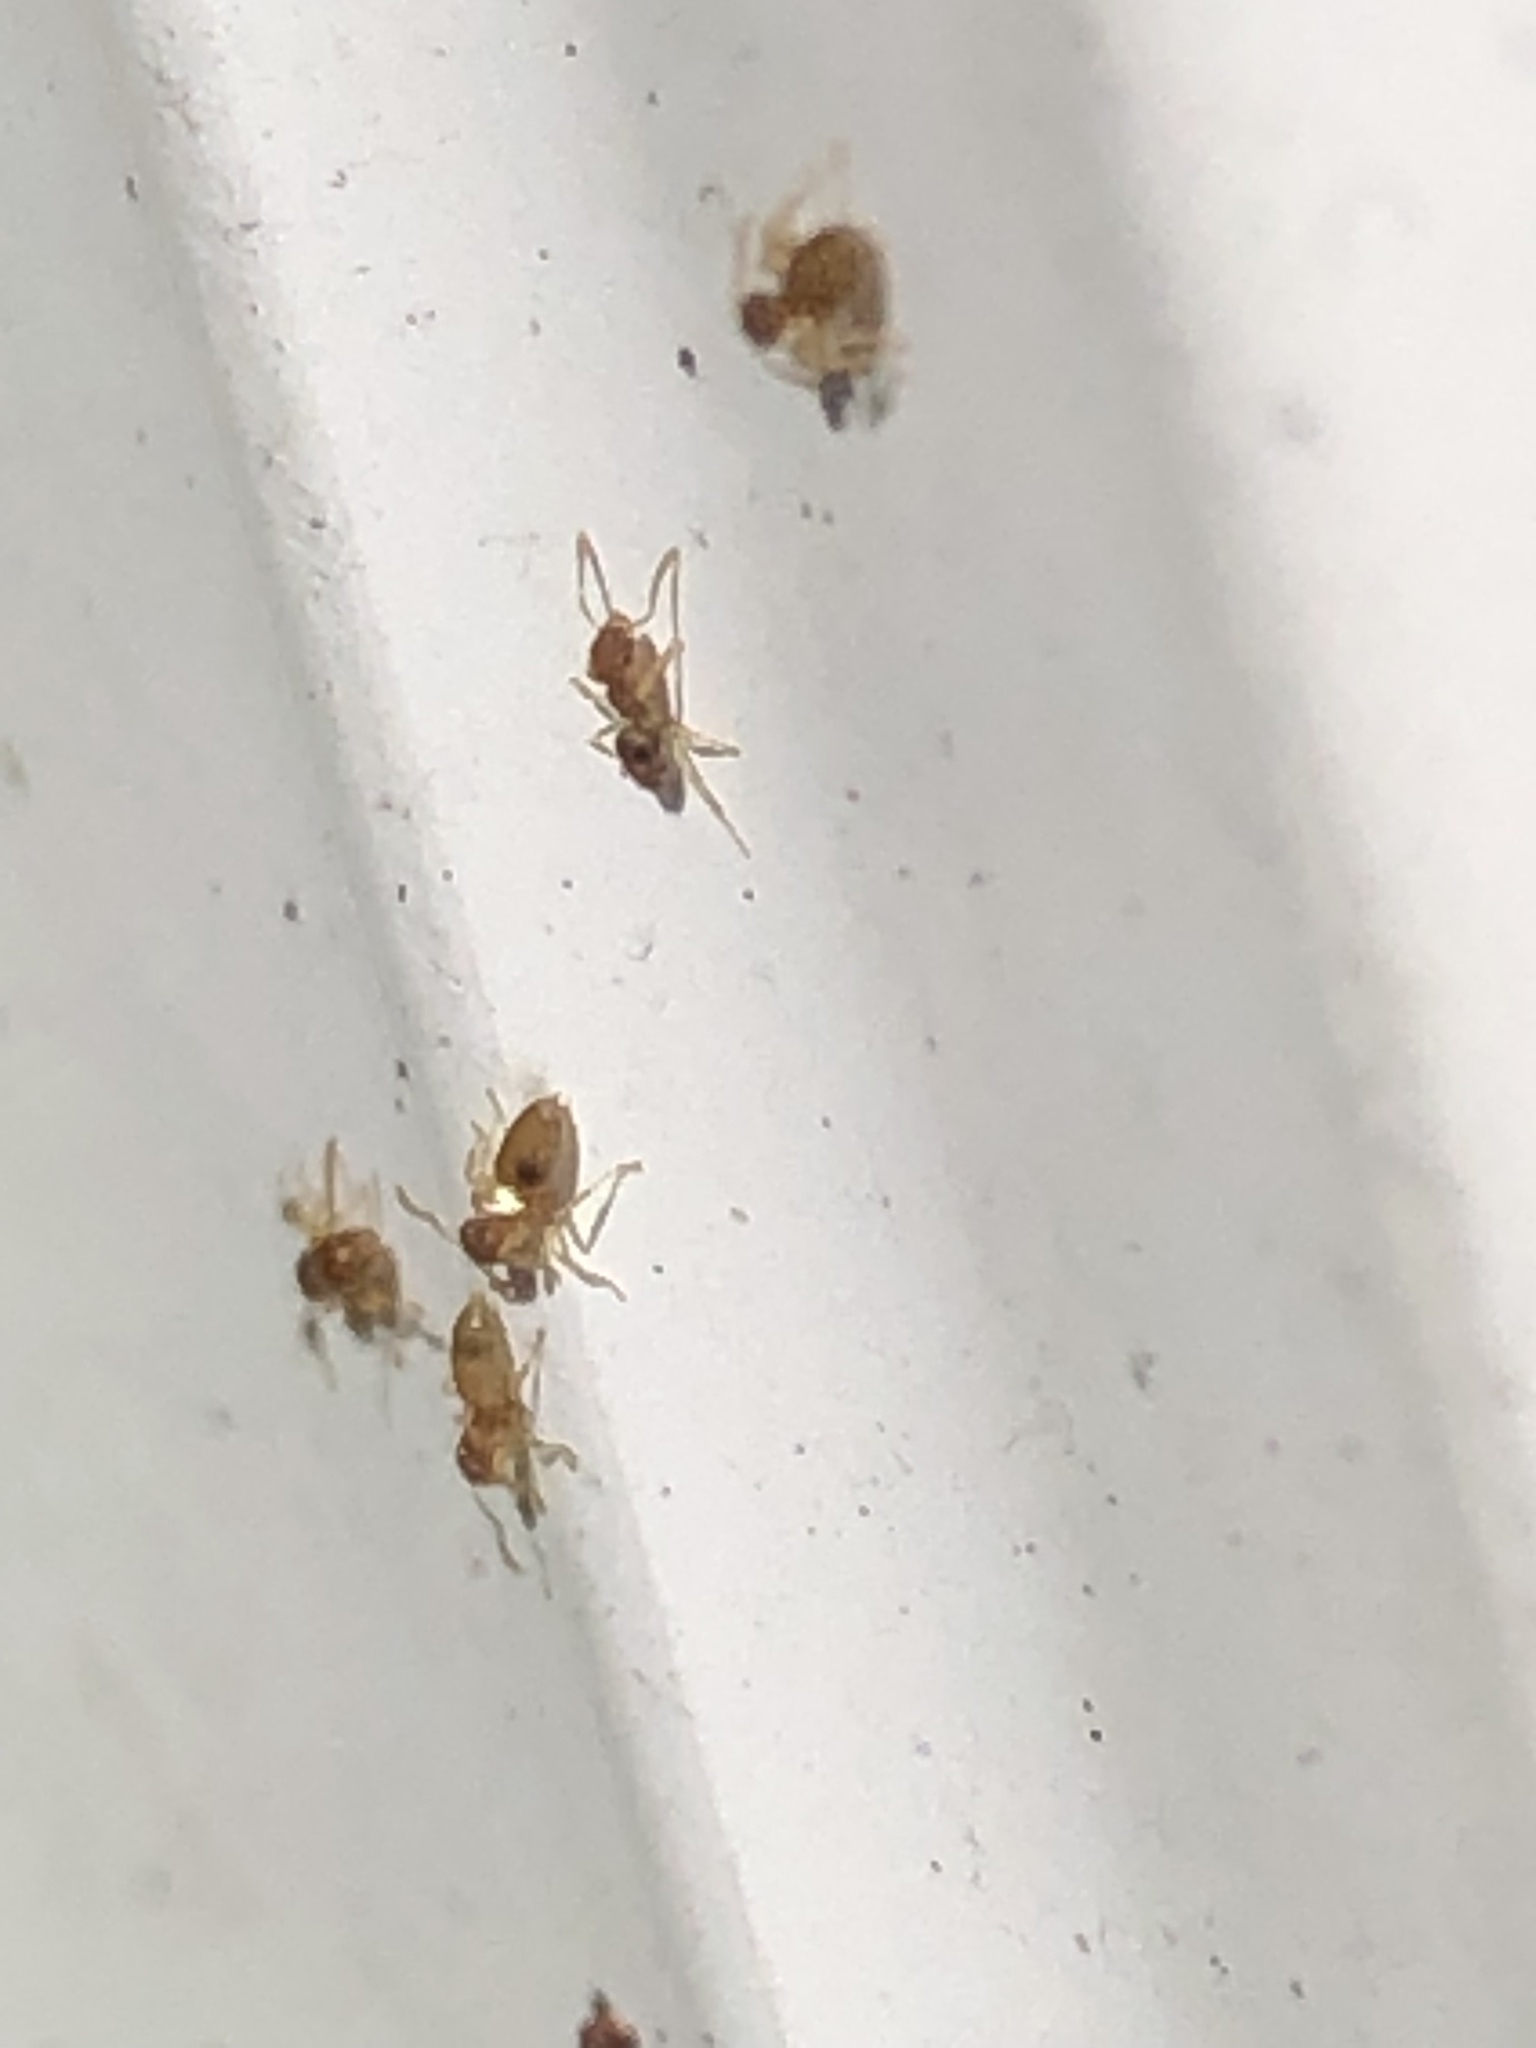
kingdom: Animalia
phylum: Arthropoda
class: Insecta
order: Hymenoptera
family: Formicidae
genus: Brachymyrmex
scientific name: Brachymyrmex depilis
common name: Hairless rover ant
